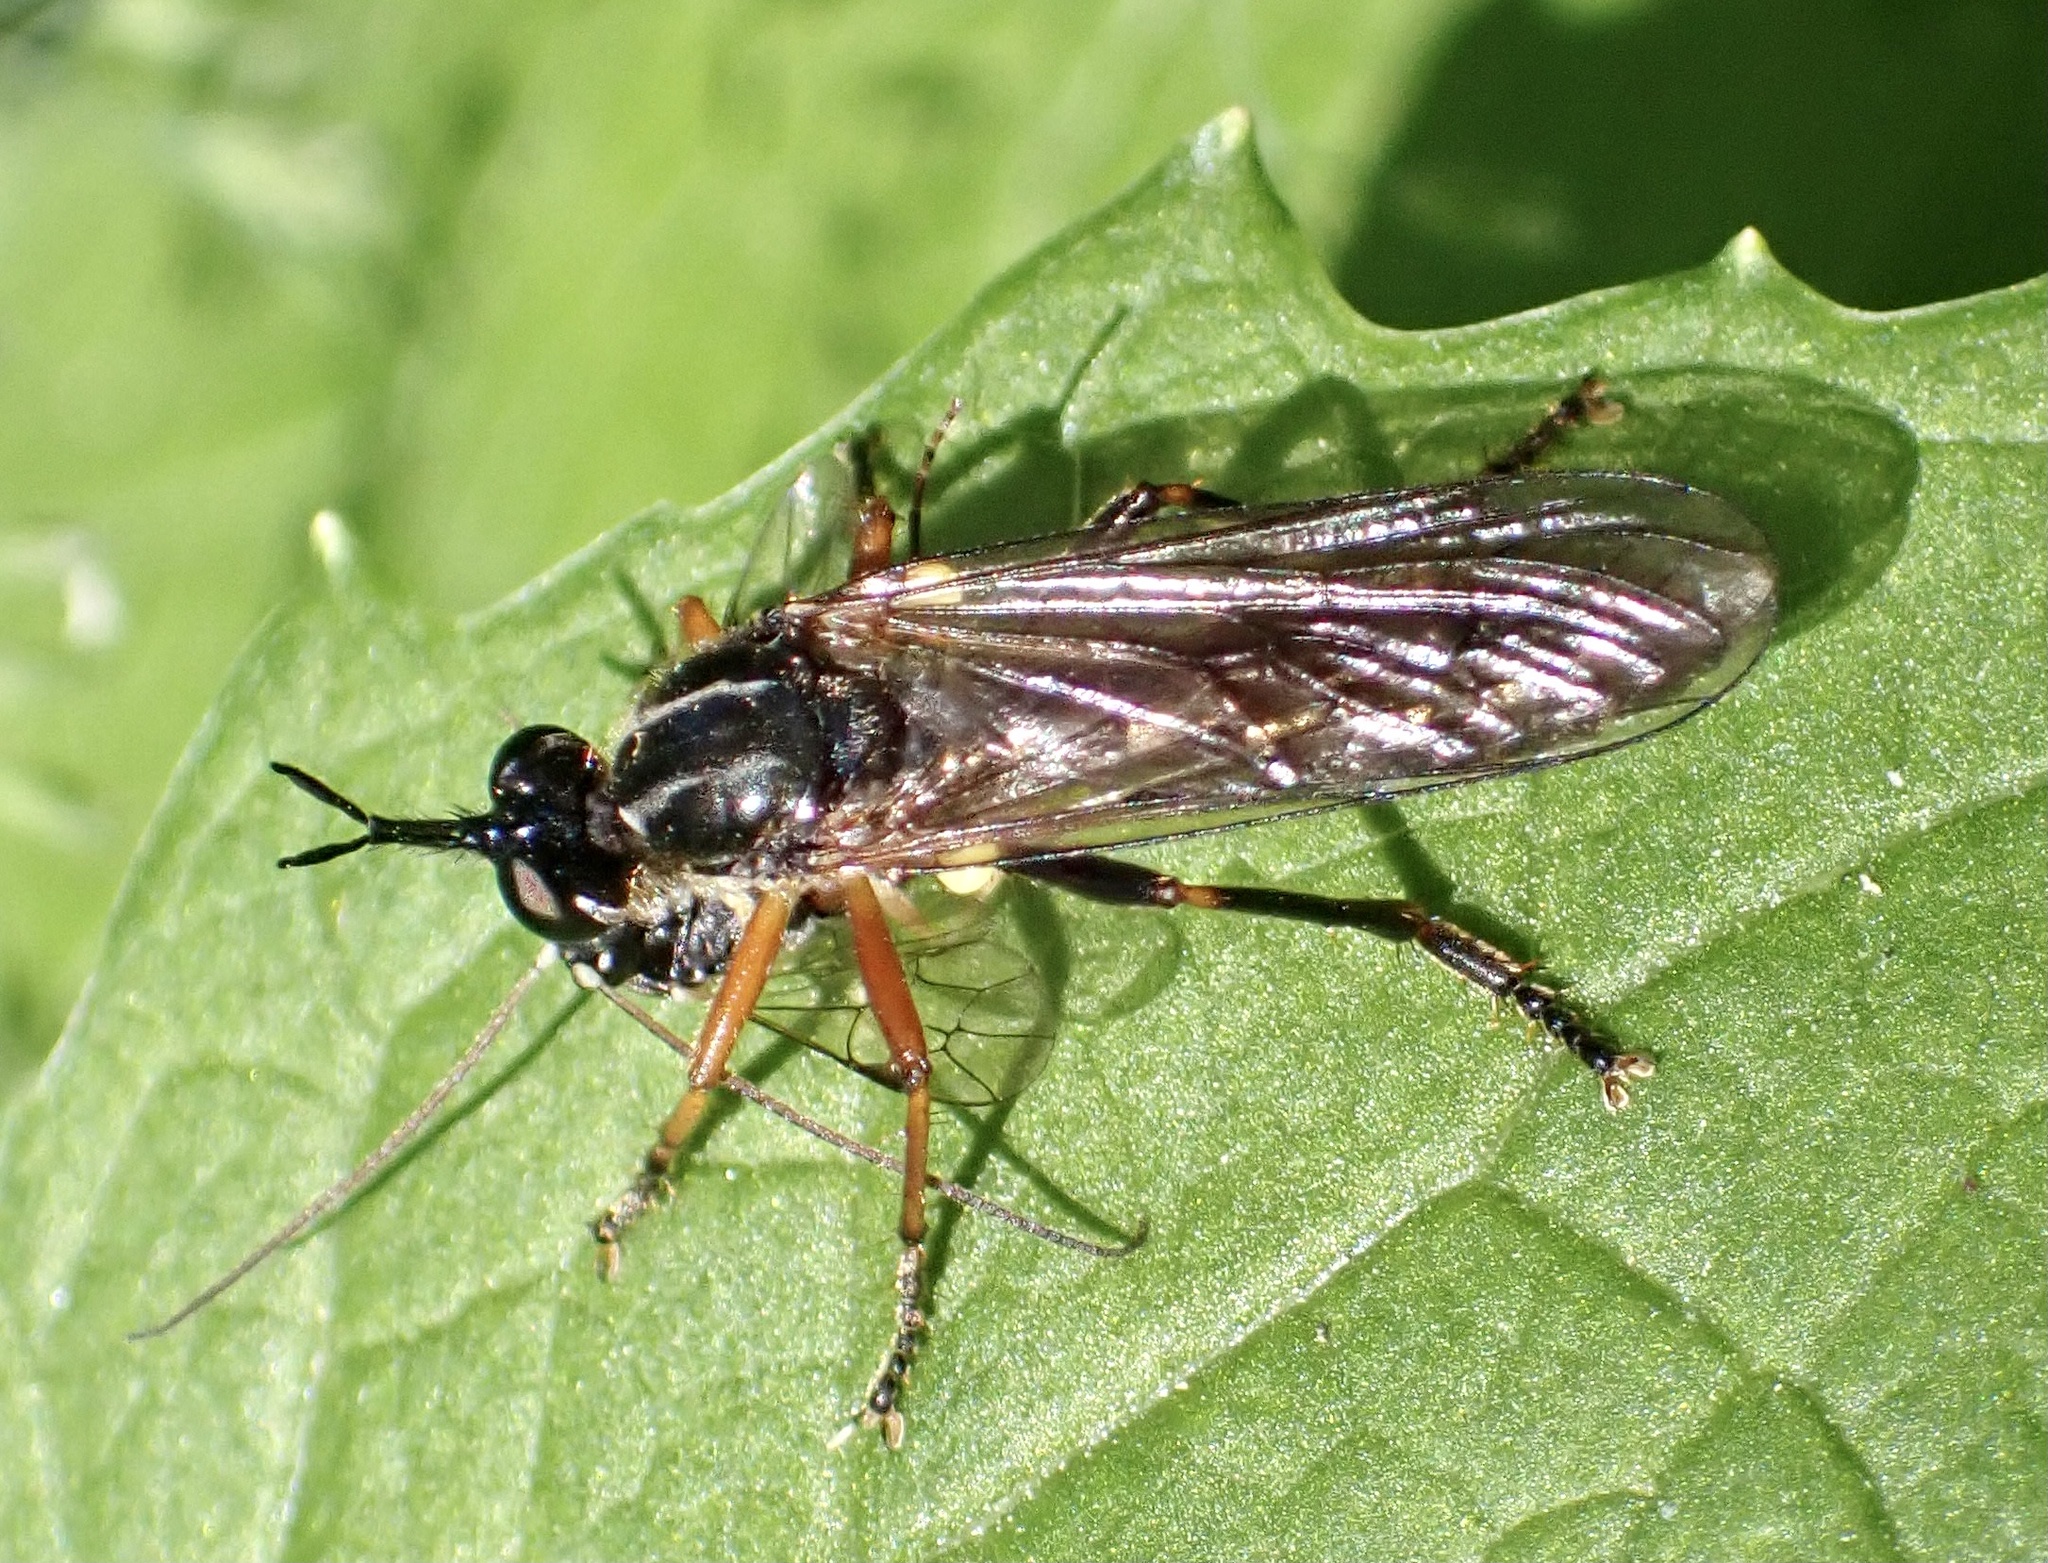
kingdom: Animalia
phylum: Arthropoda
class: Insecta
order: Diptera
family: Asilidae
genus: Dioctria
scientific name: Dioctria rufipes
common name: Common red-legged robberfly
